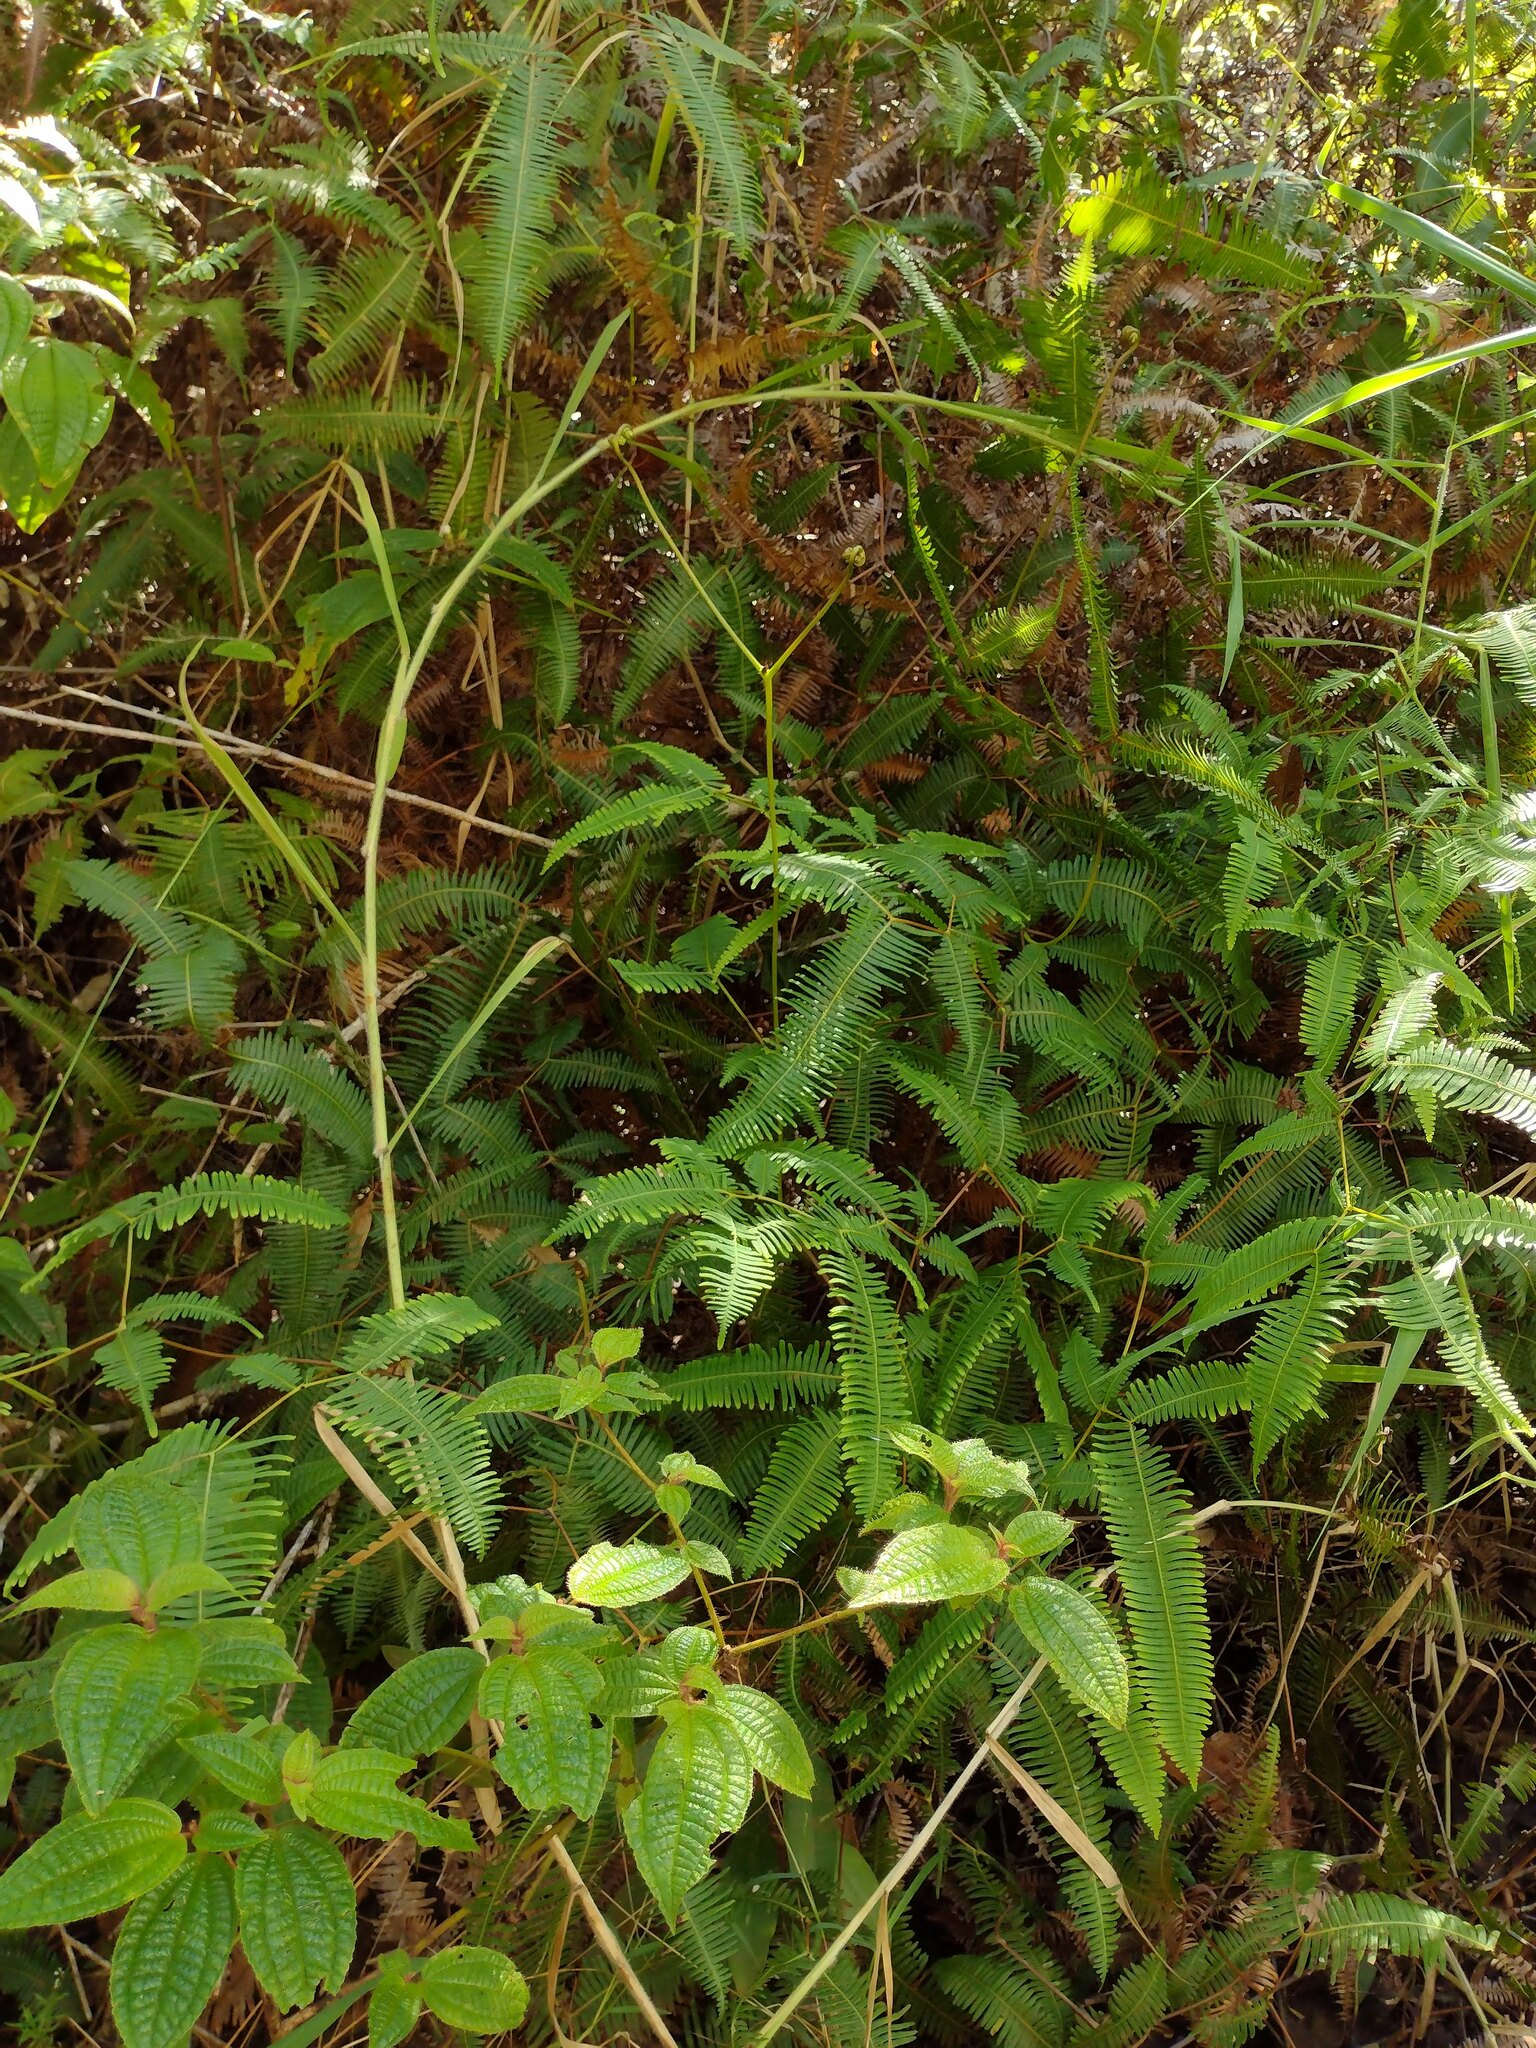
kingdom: Plantae
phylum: Tracheophyta
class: Magnoliopsida
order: Myrtales
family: Melastomataceae
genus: Miconia
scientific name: Miconia crenata
